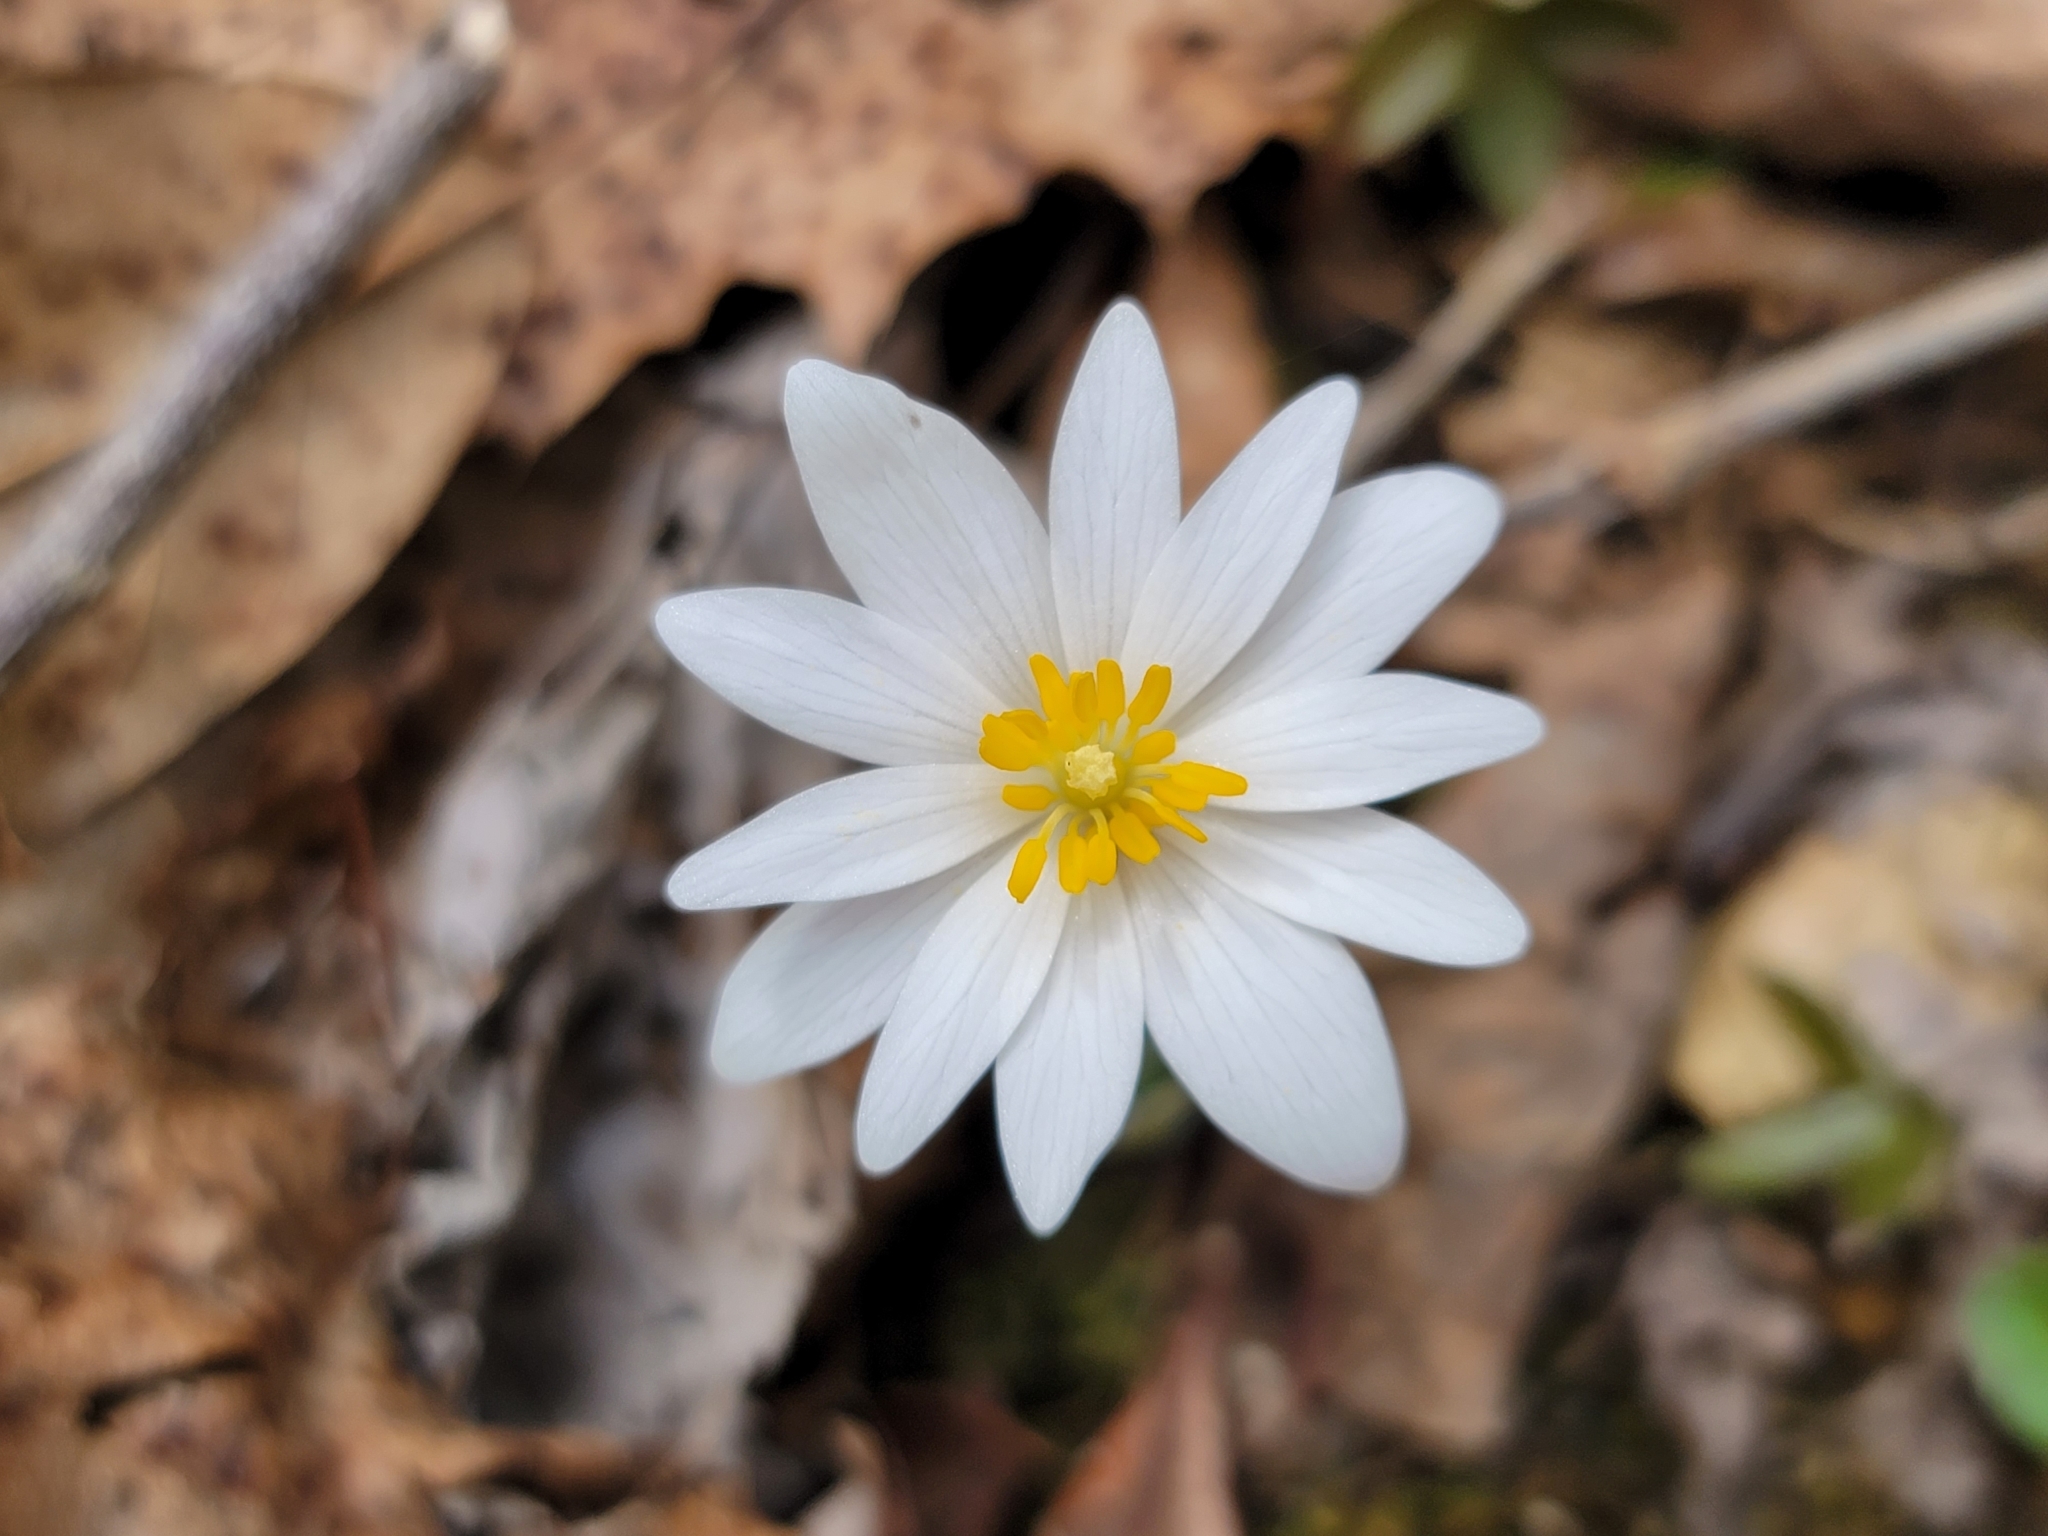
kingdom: Plantae
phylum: Tracheophyta
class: Magnoliopsida
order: Ranunculales
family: Papaveraceae
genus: Sanguinaria
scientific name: Sanguinaria canadensis
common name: Bloodroot
